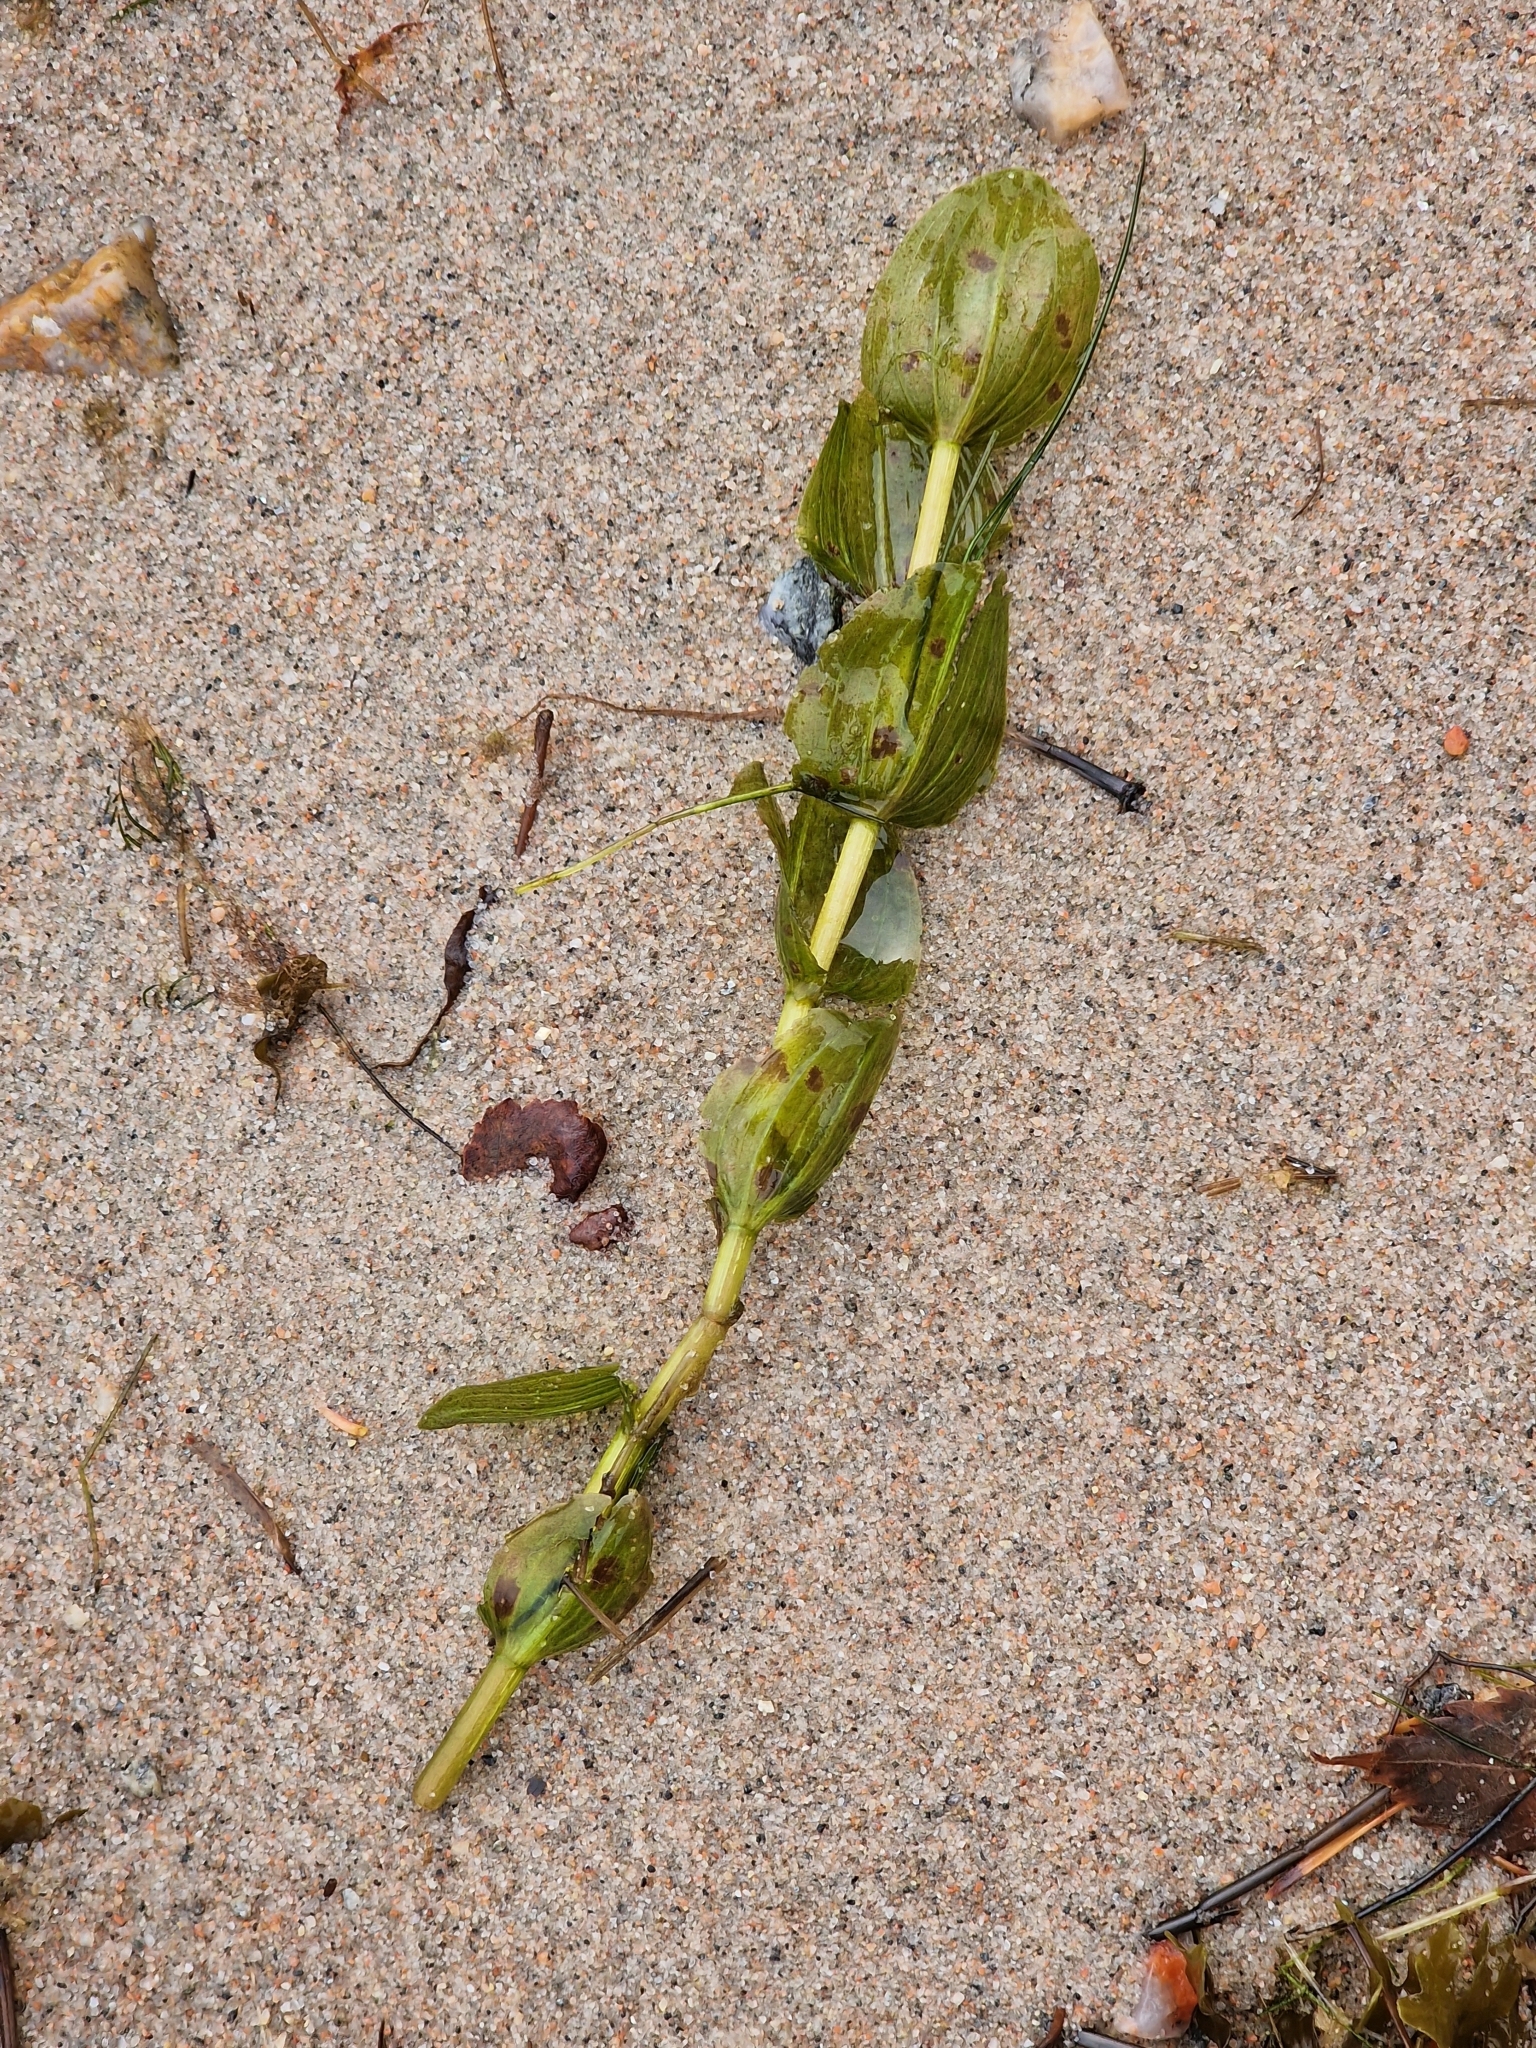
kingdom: Plantae
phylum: Tracheophyta
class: Liliopsida
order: Alismatales
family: Potamogetonaceae
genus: Potamogeton
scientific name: Potamogeton perfoliatus
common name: Perfoliate pondweed
